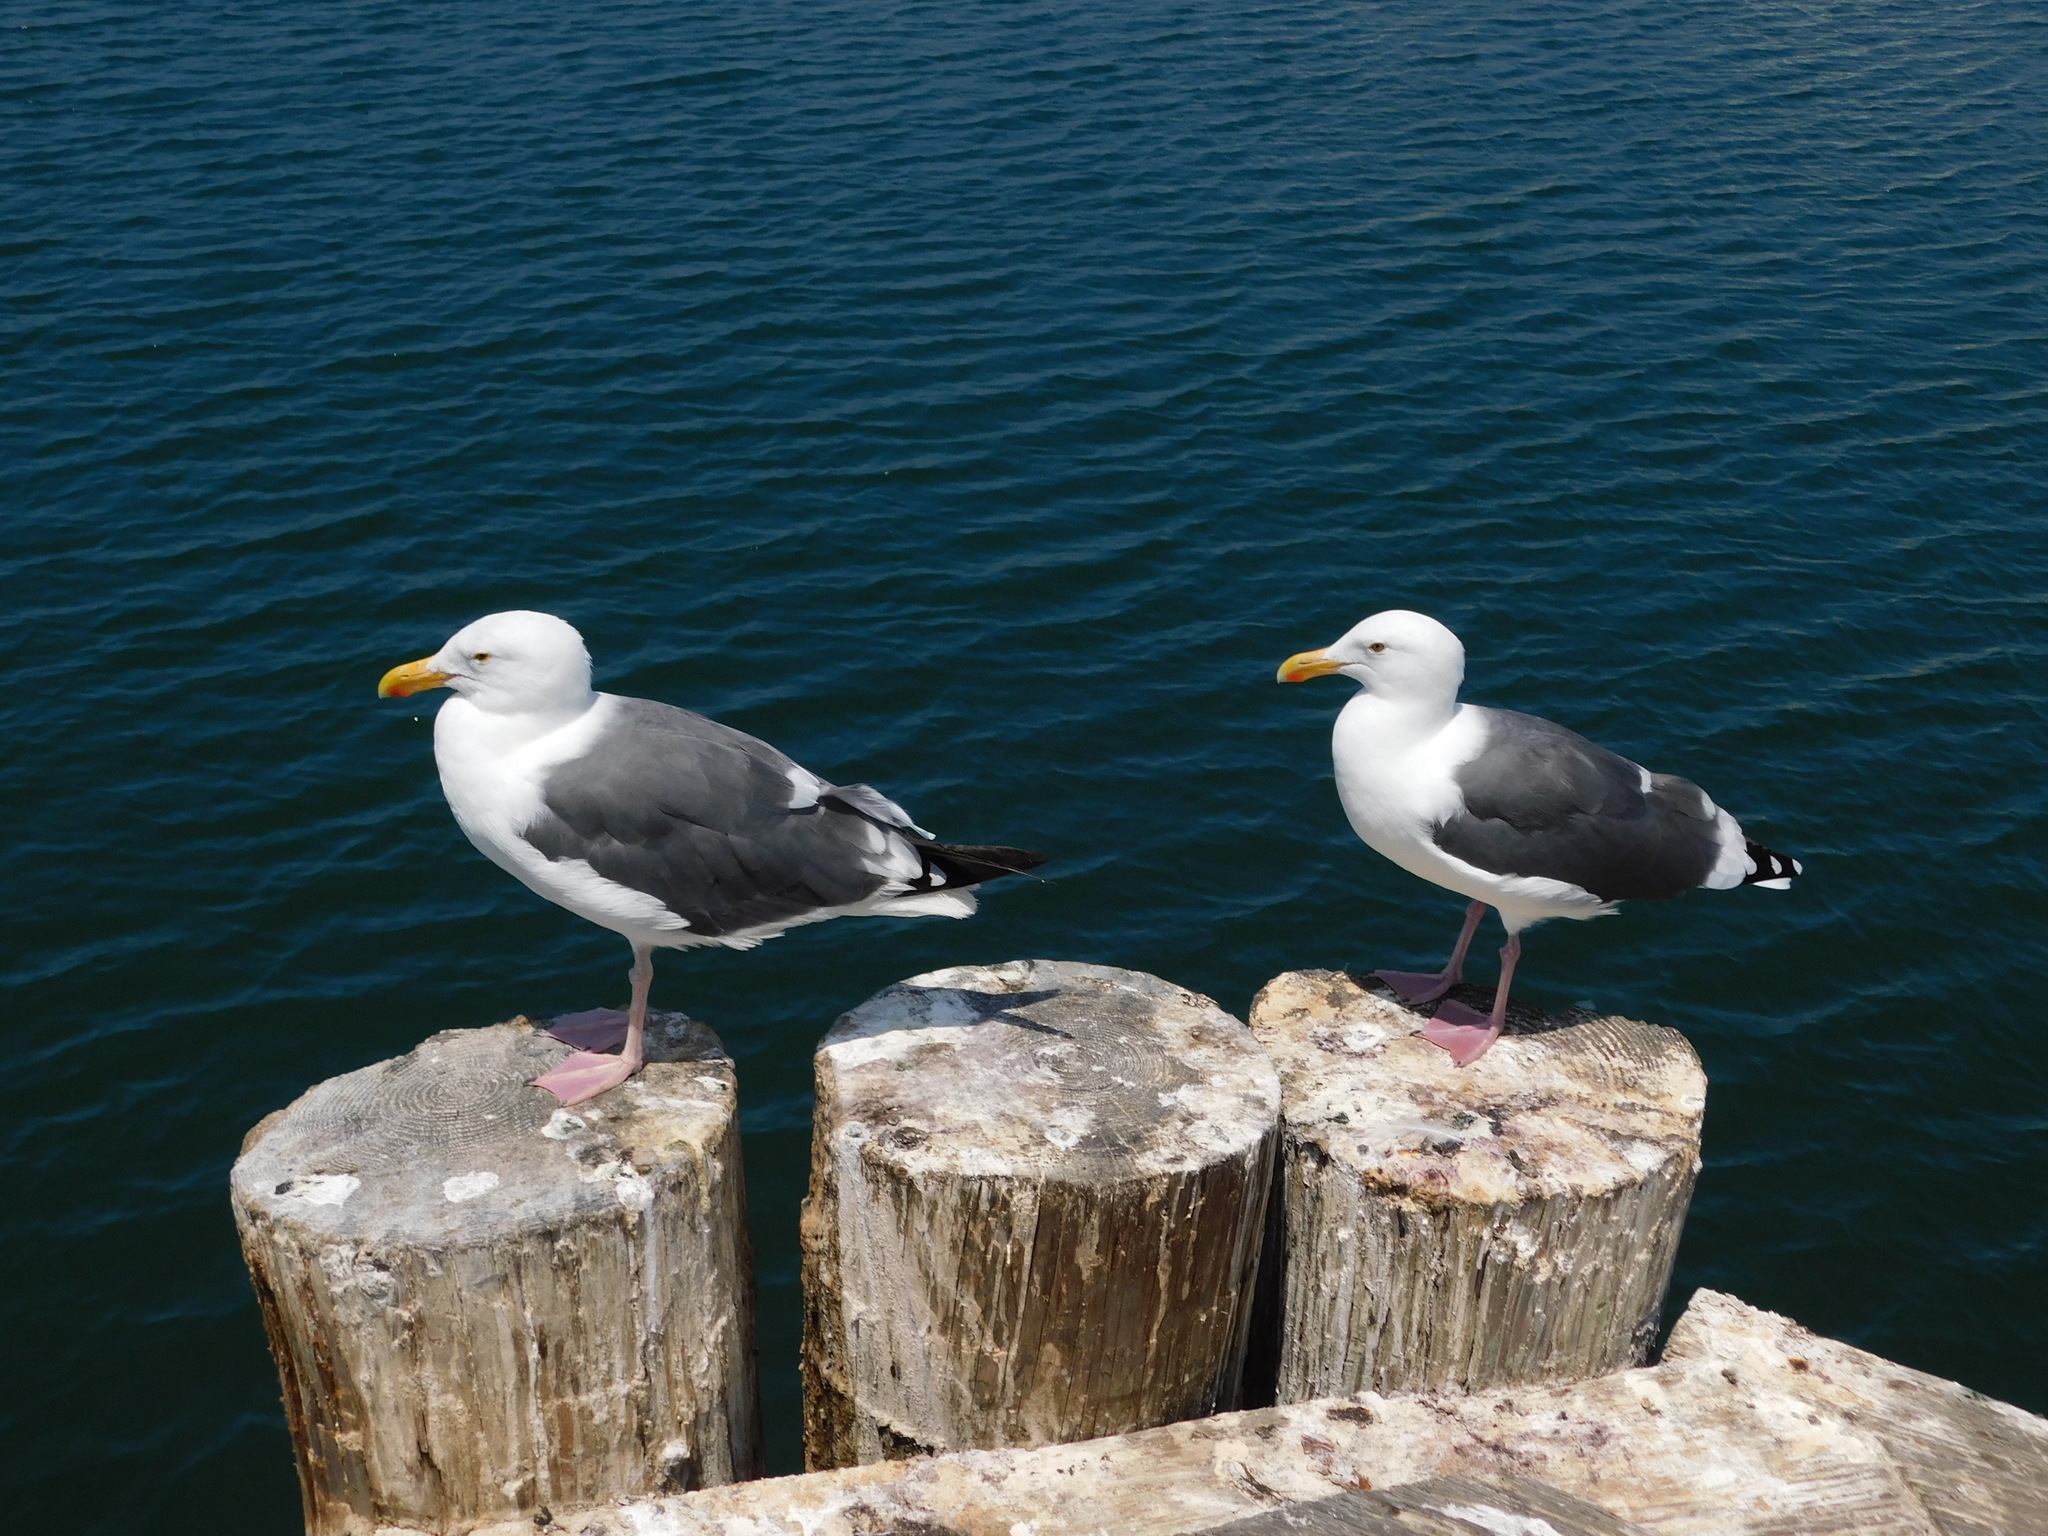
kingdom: Animalia
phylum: Chordata
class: Aves
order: Charadriiformes
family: Laridae
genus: Larus
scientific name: Larus occidentalis
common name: Western gull
